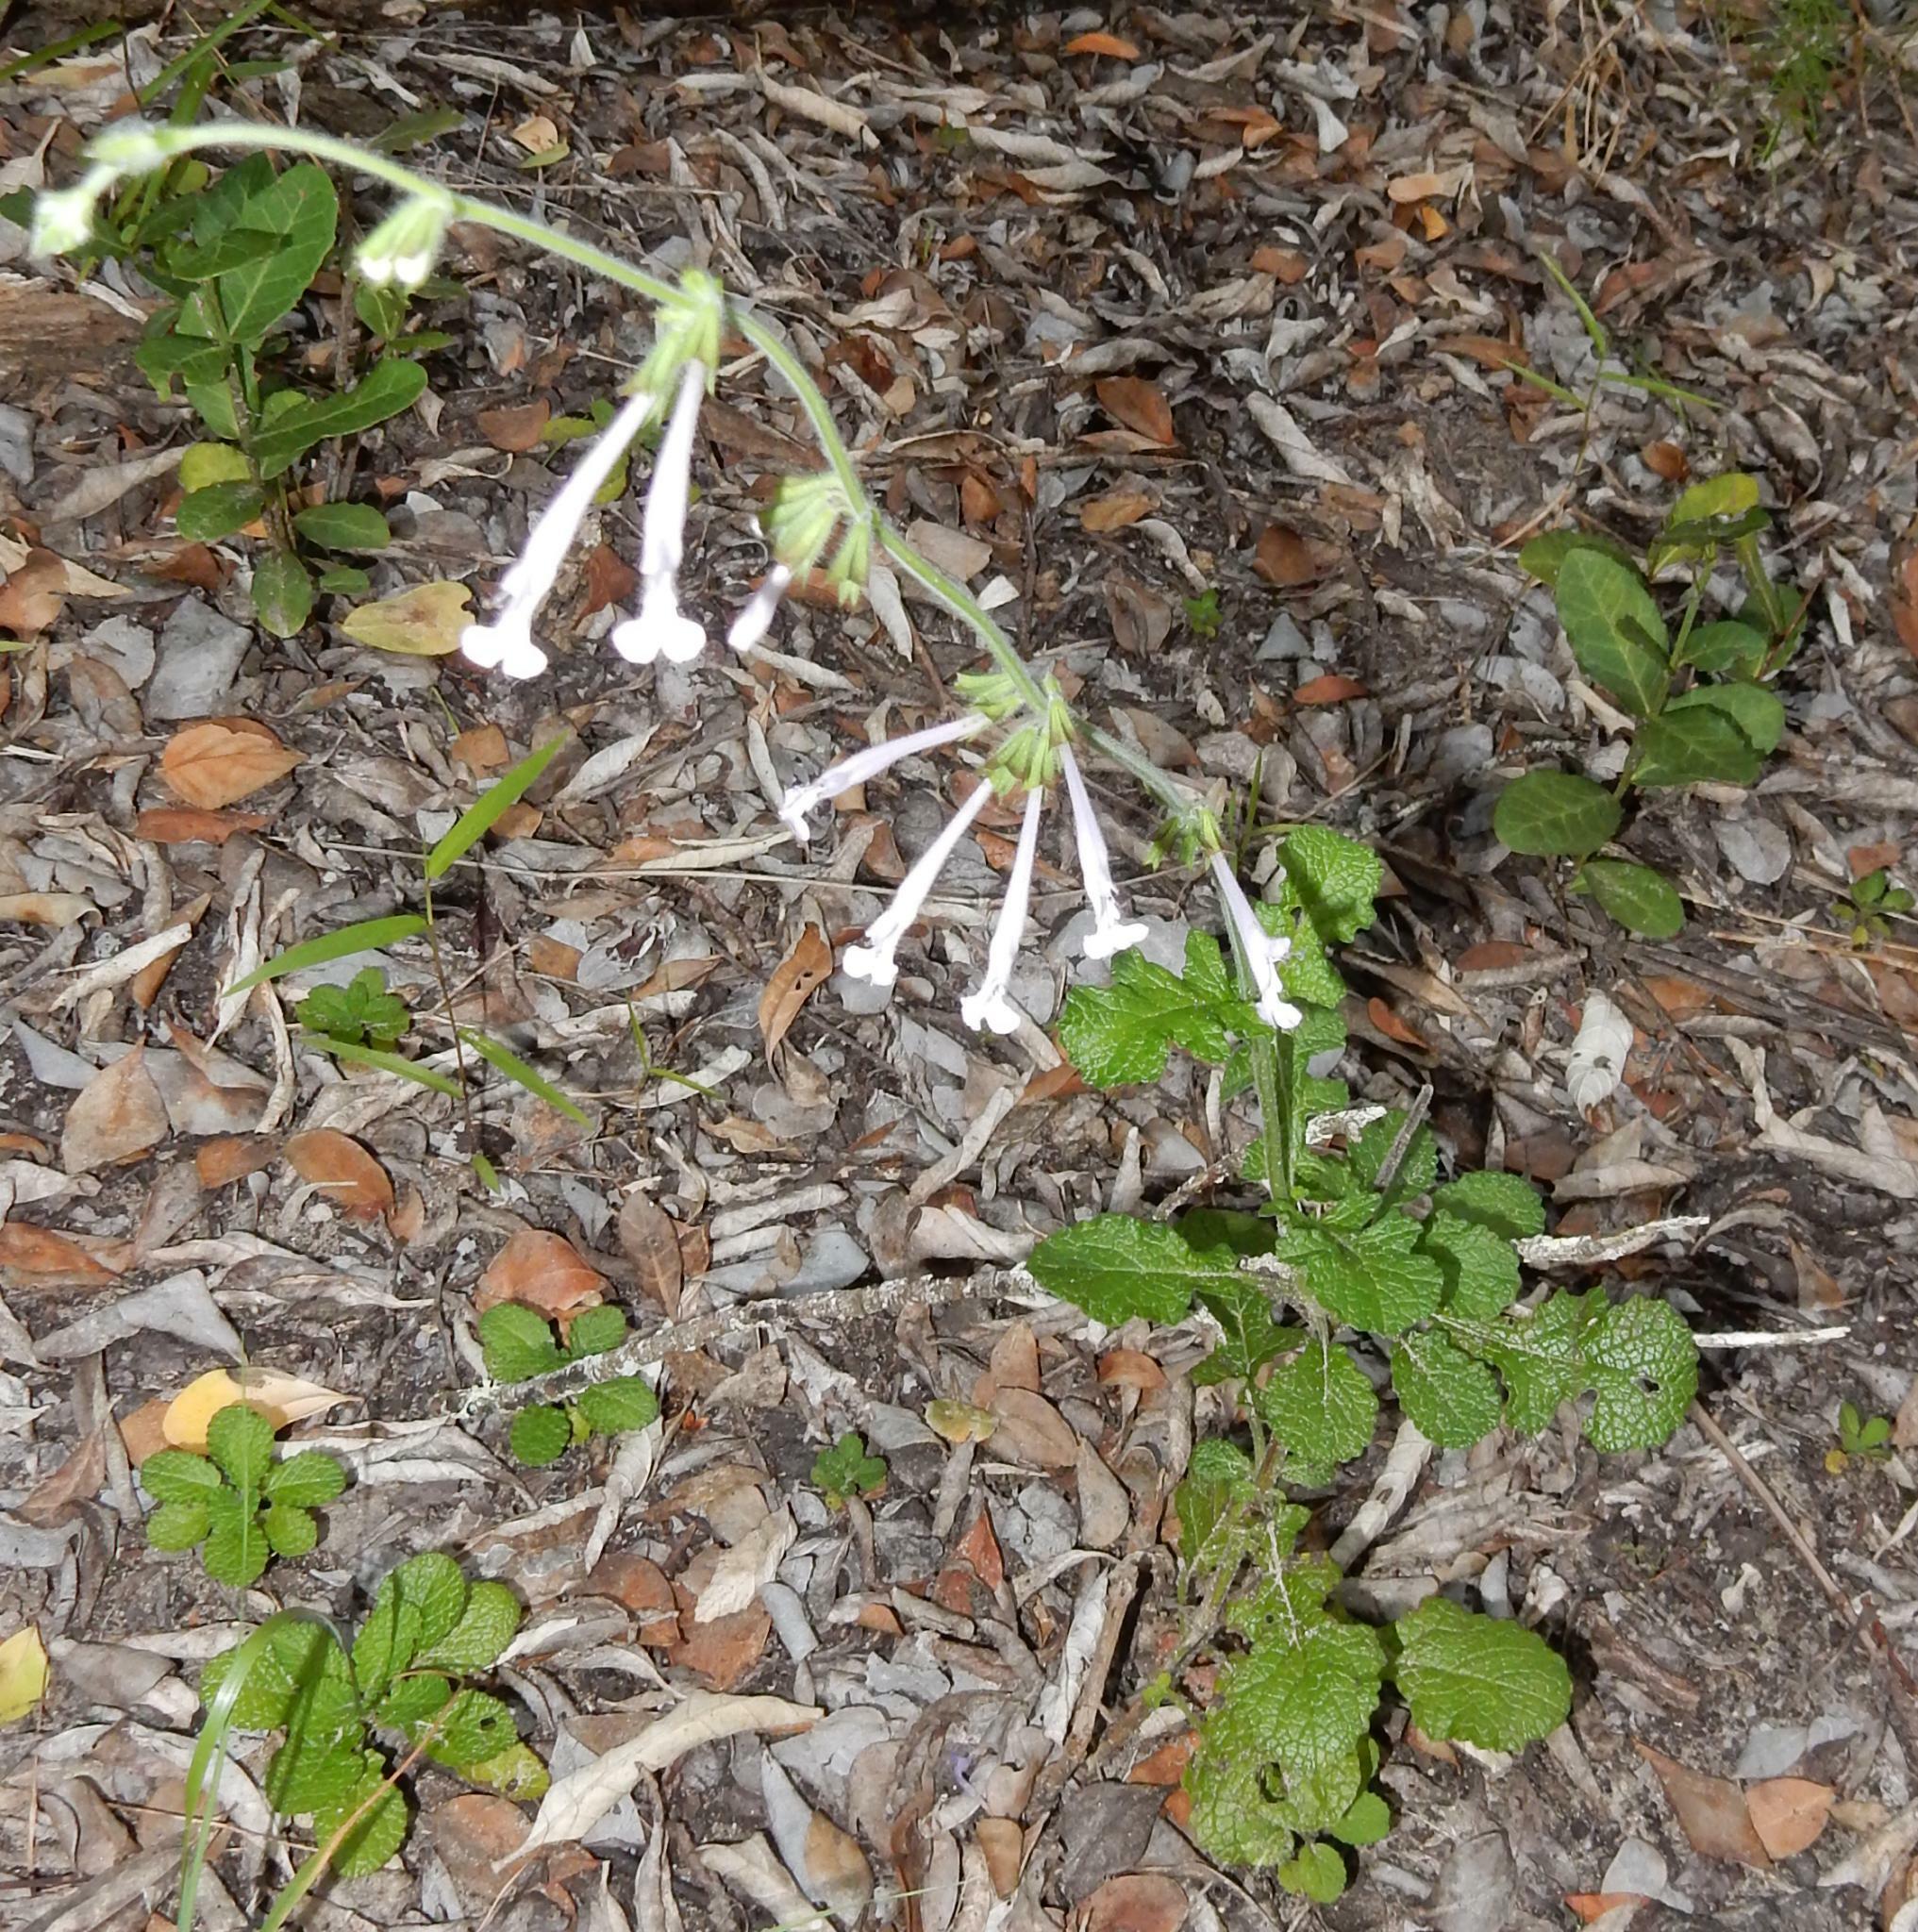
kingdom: Plantae
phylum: Tracheophyta
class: Magnoliopsida
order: Lamiales
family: Lamiaceae
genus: Salvia
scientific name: Salvia scabra
